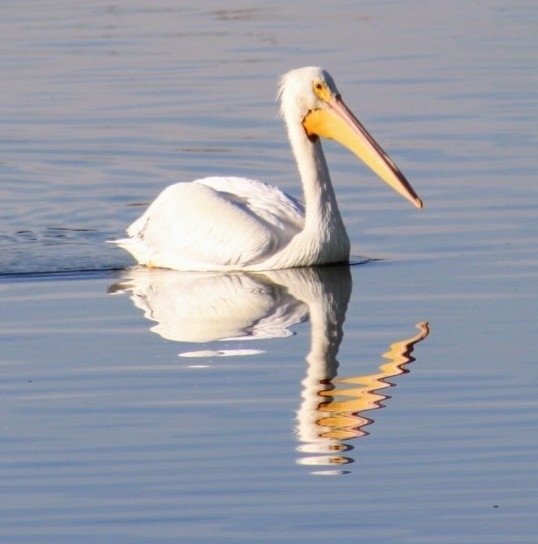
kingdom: Animalia
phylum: Chordata
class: Aves
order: Pelecaniformes
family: Pelecanidae
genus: Pelecanus
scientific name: Pelecanus erythrorhynchos
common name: American white pelican
